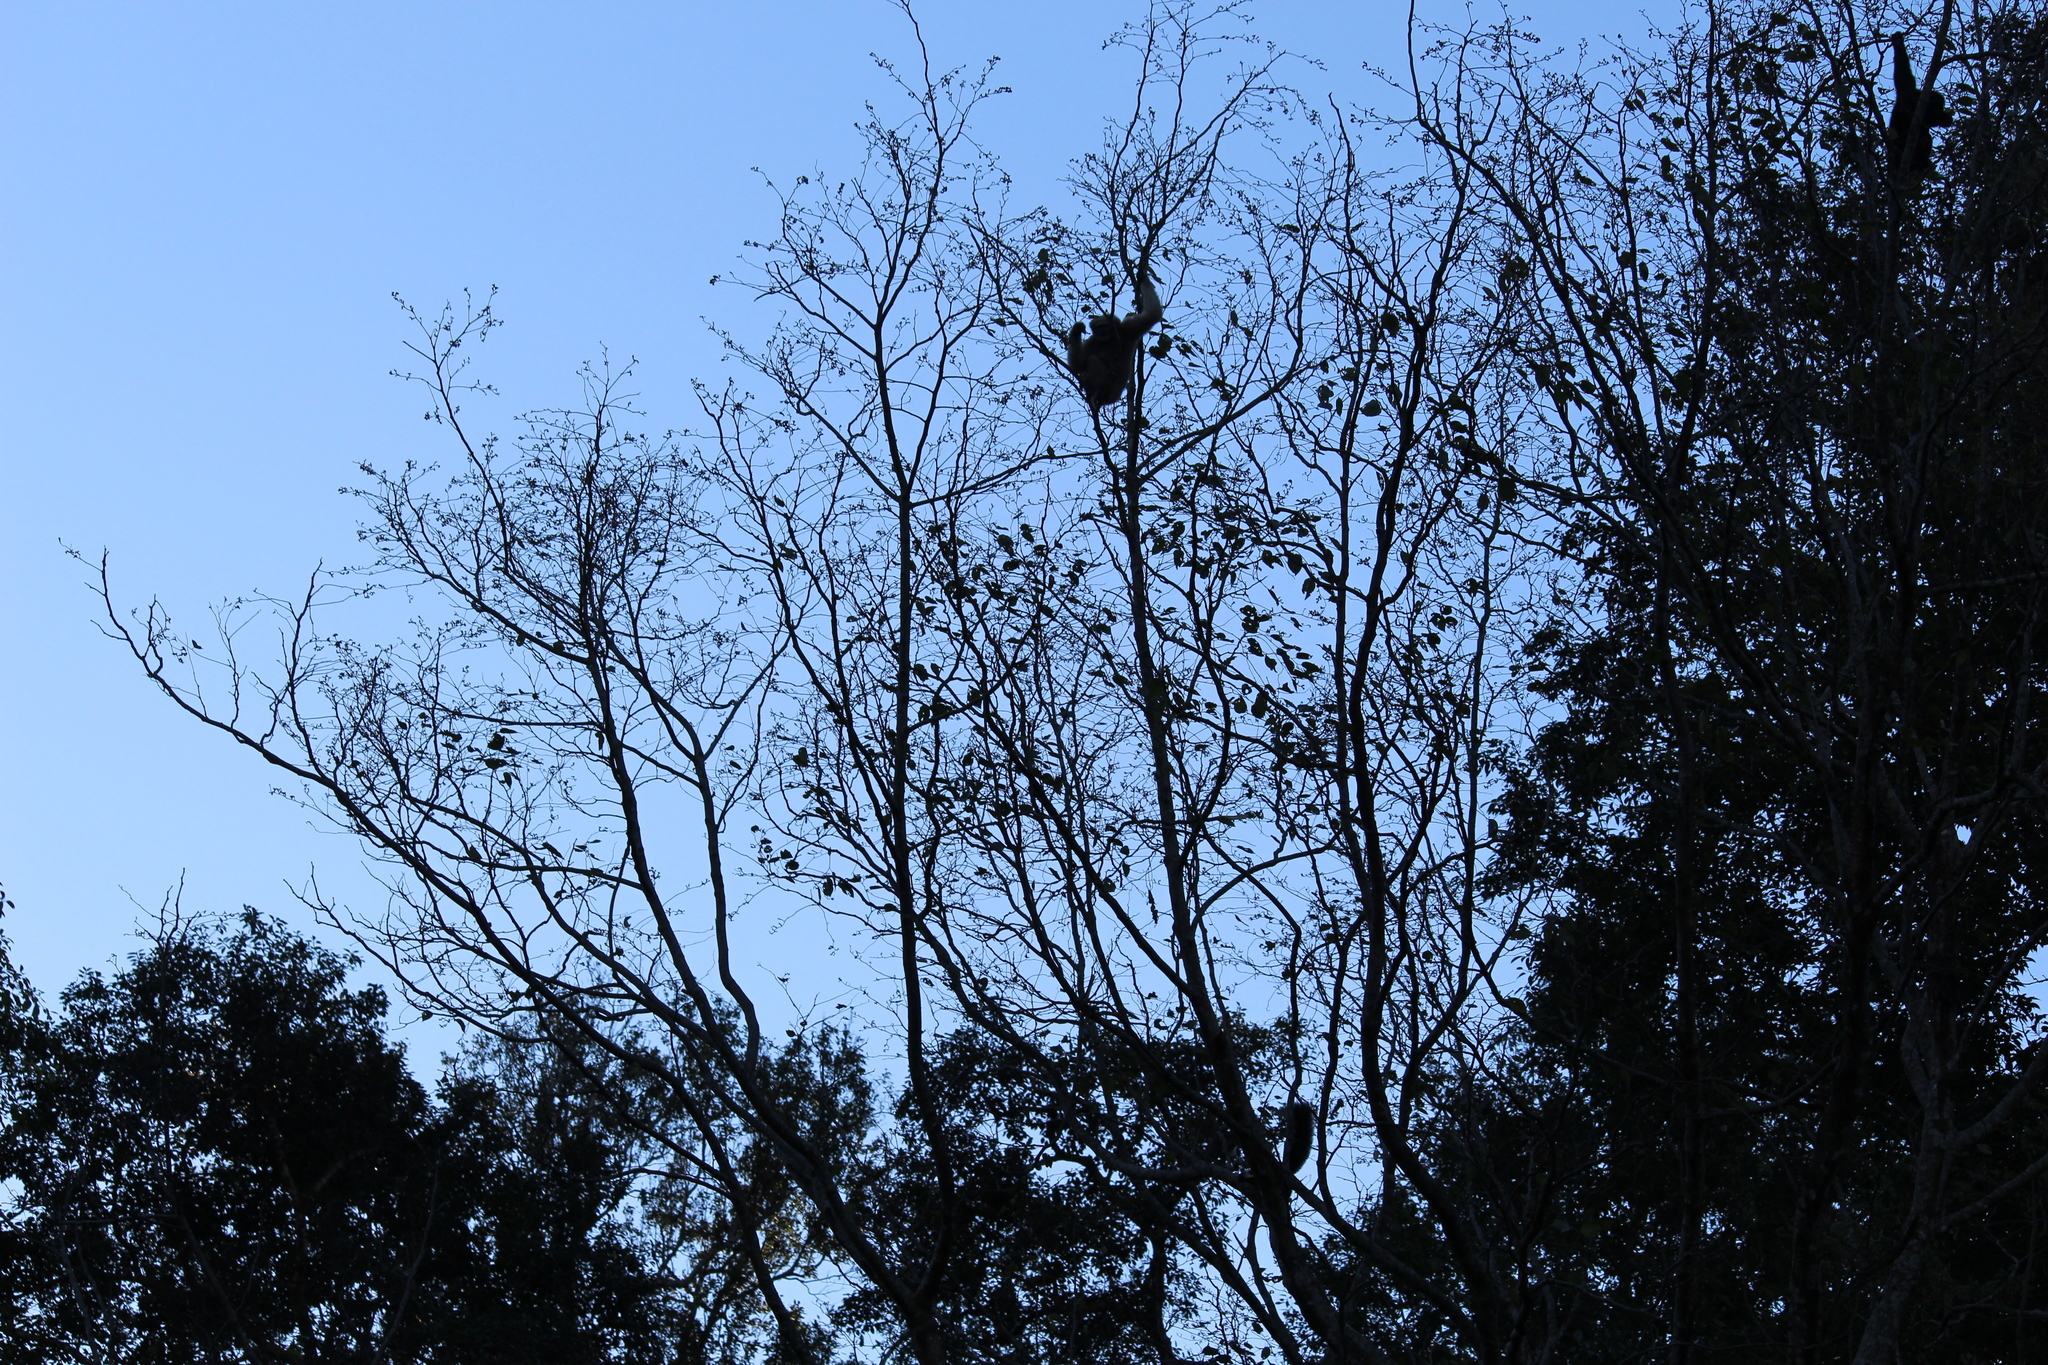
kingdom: Animalia
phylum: Chordata
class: Mammalia
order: Primates
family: Hylobatidae
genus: Hoolock
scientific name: Hoolock hoolock
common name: Western hoolock gibbon
